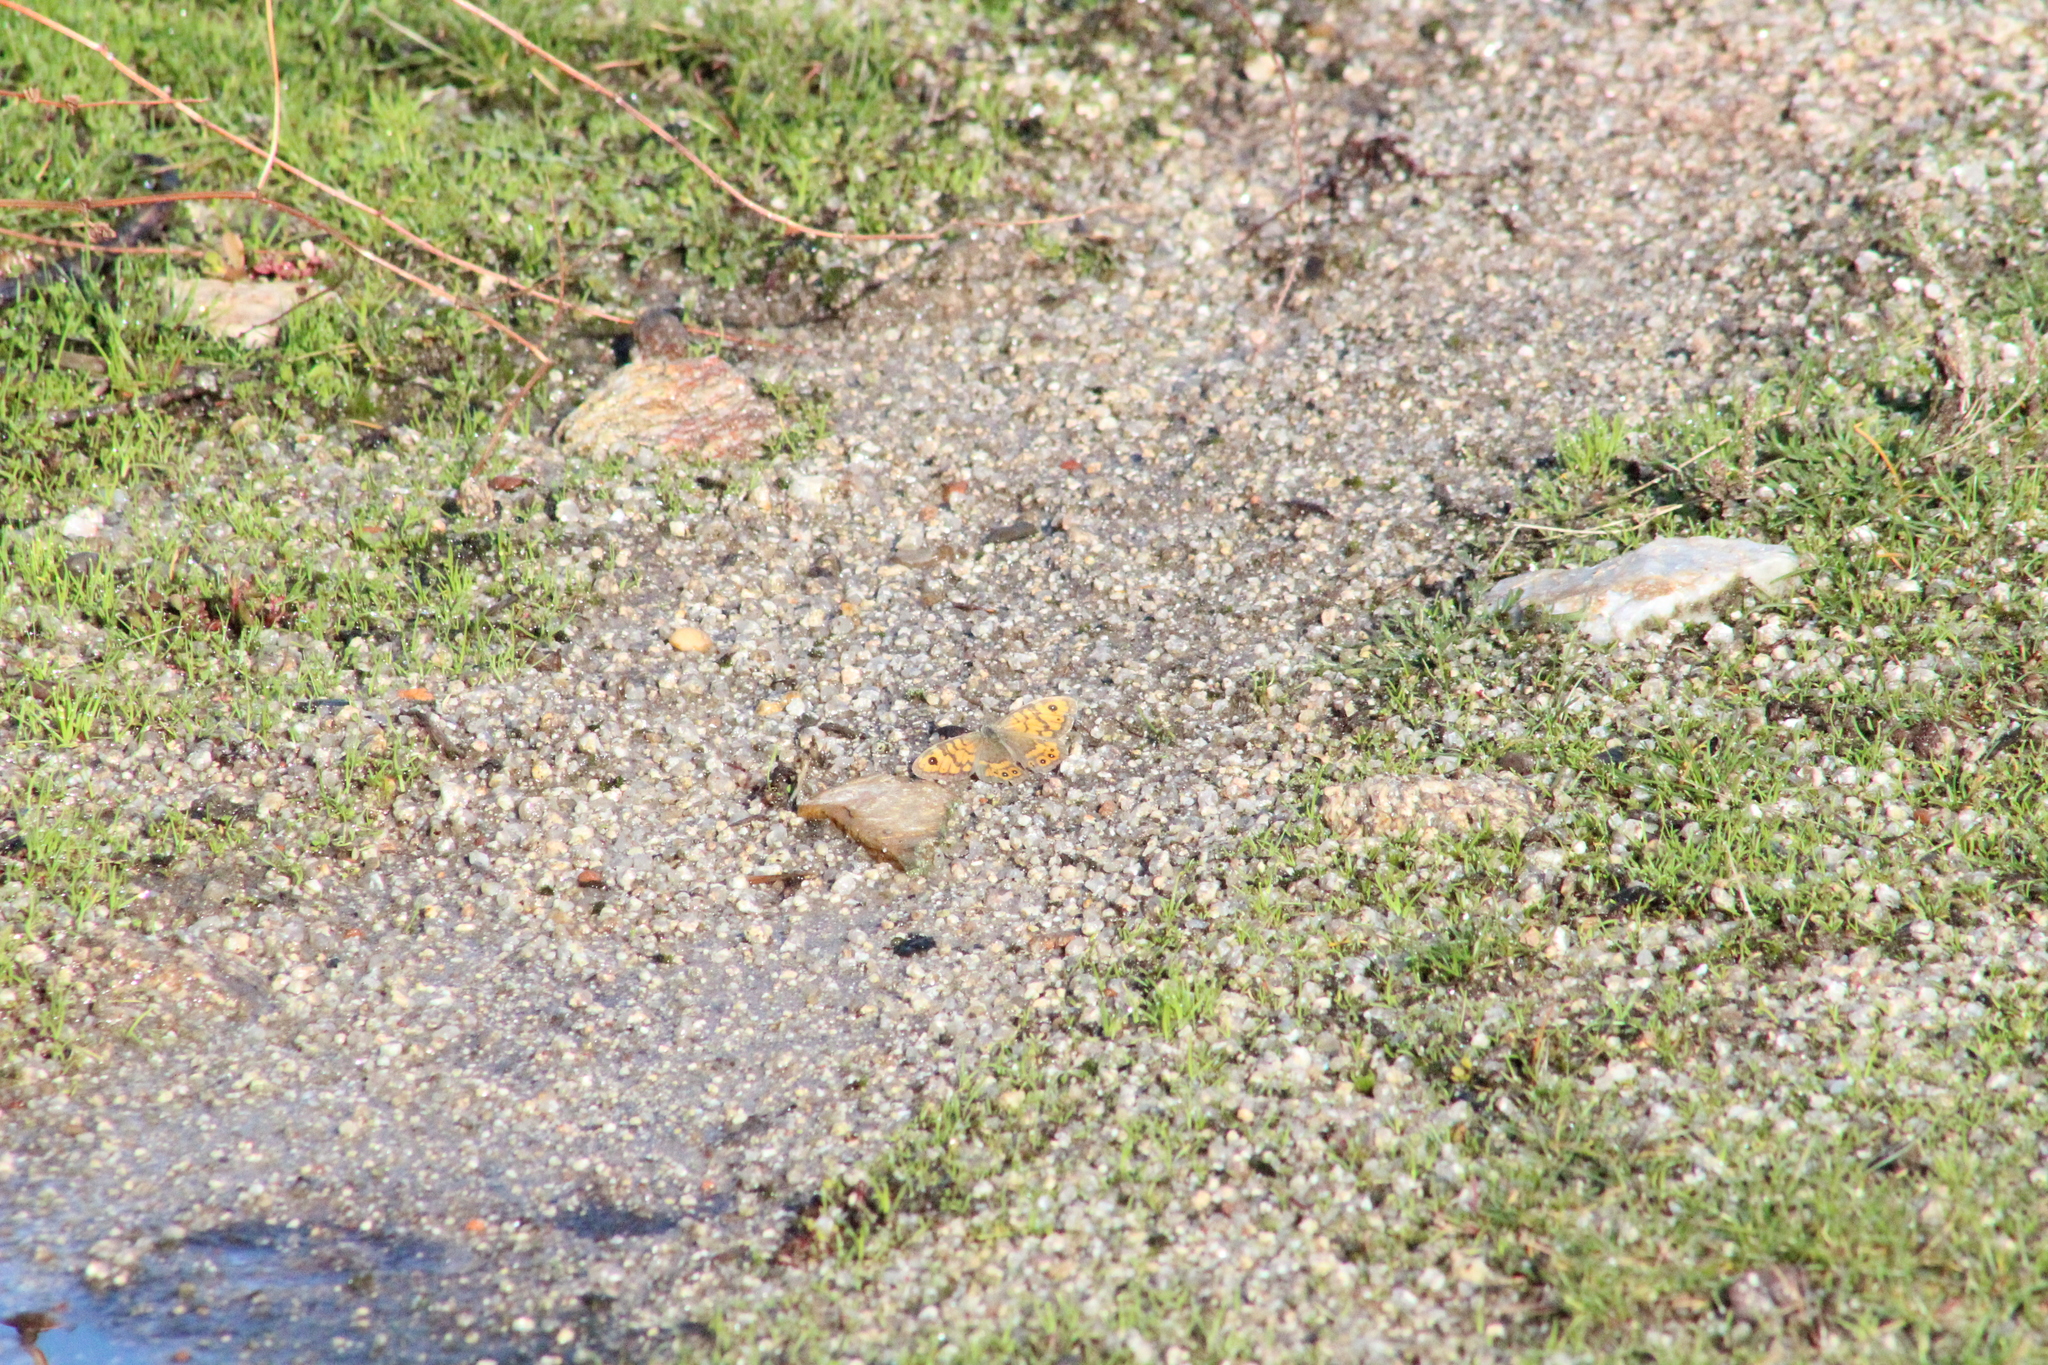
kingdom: Animalia
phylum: Arthropoda
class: Insecta
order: Lepidoptera
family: Nymphalidae
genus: Pararge
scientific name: Pararge Lasiommata megera
